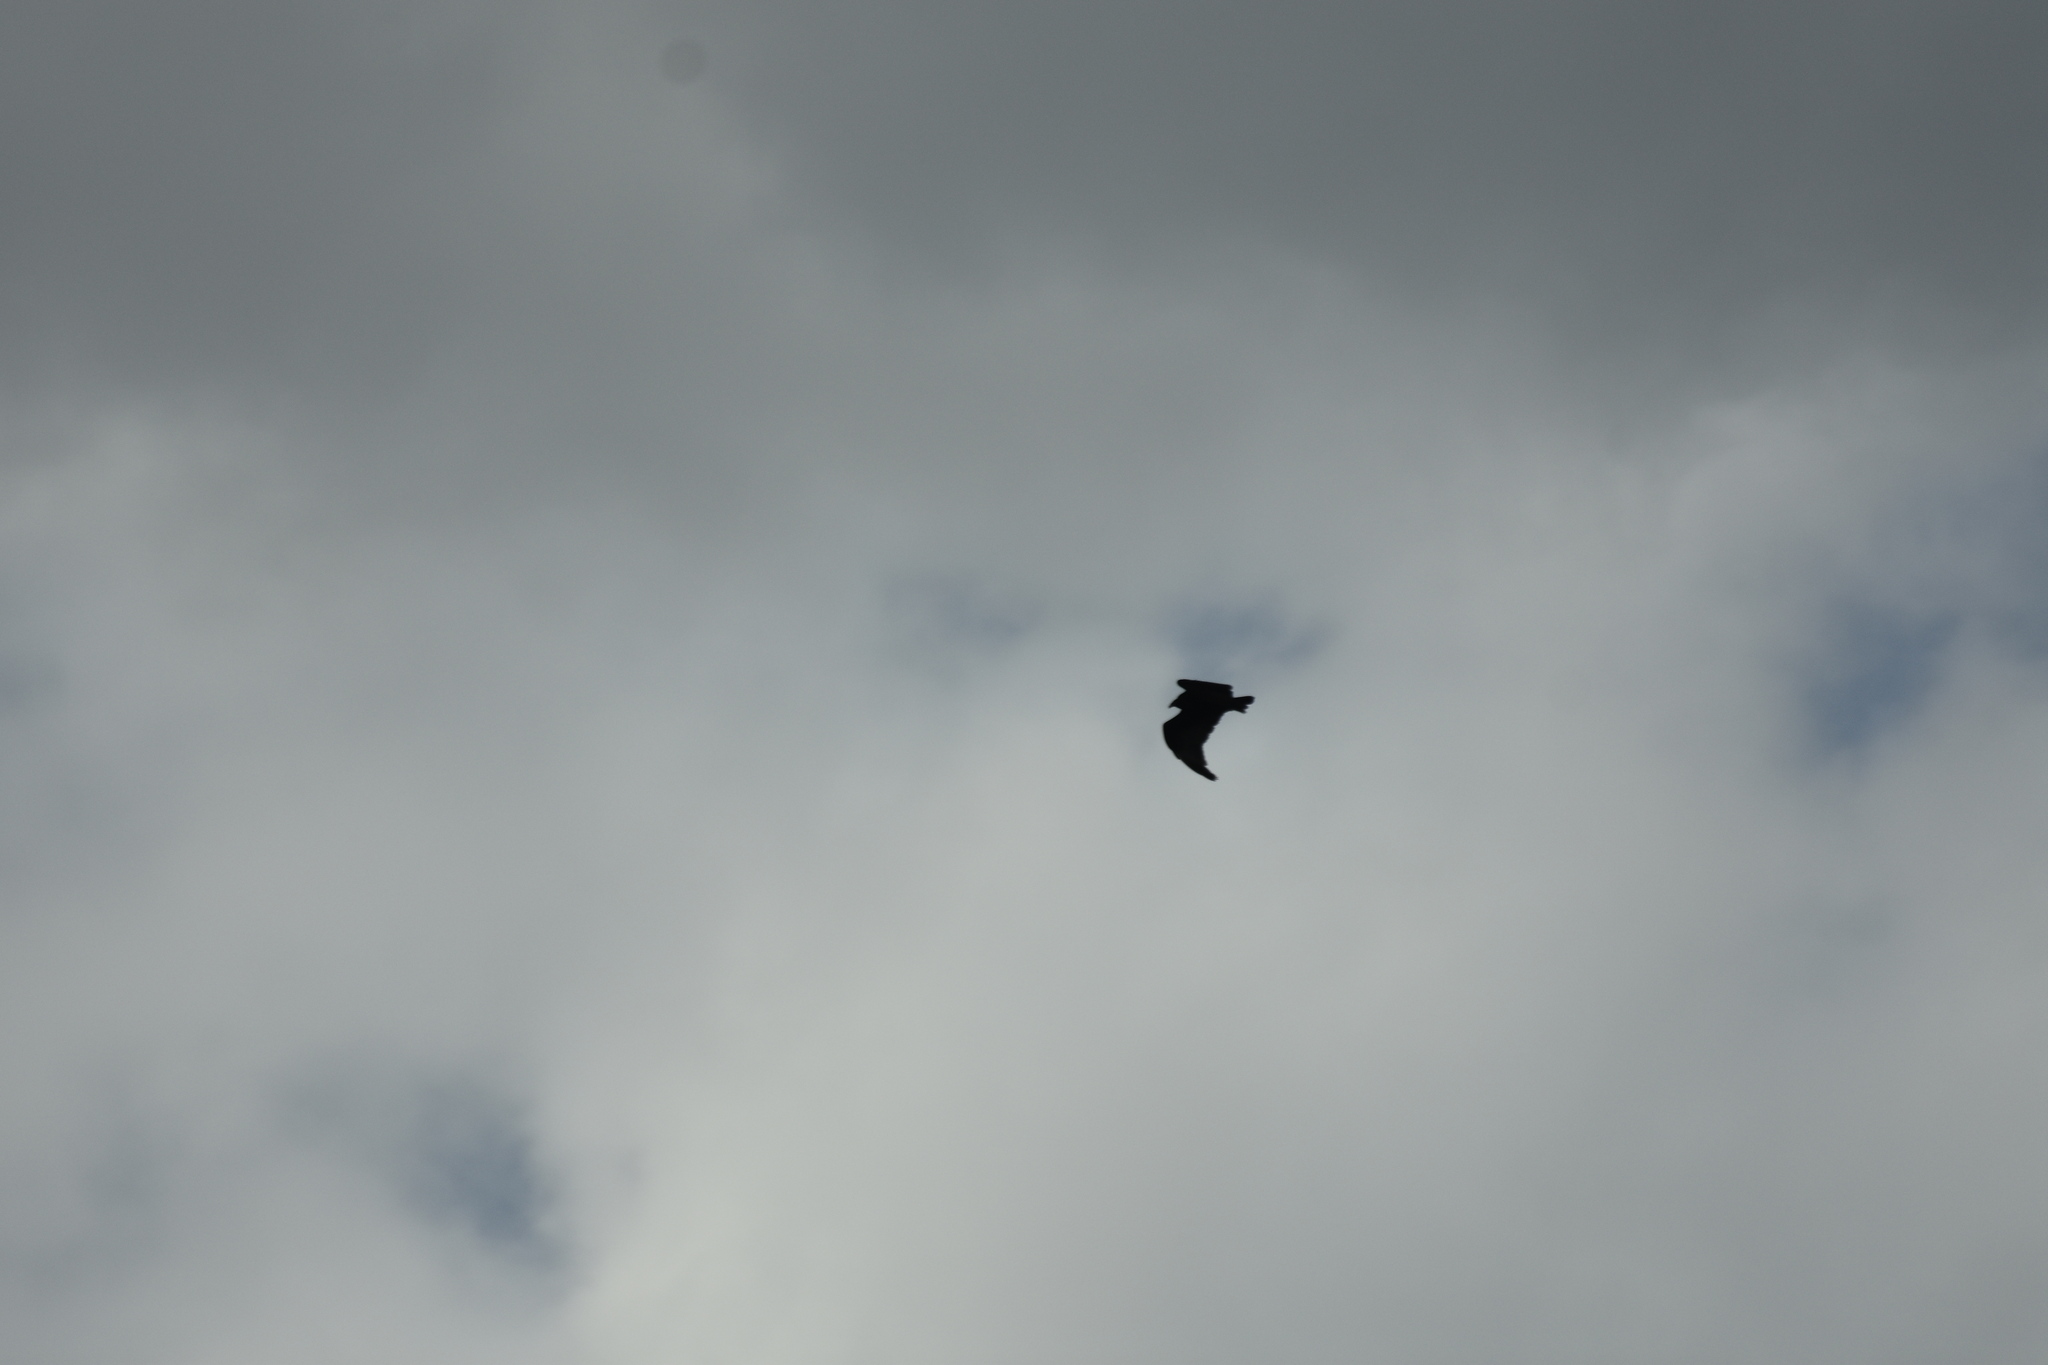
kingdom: Animalia
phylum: Chordata
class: Aves
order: Accipitriformes
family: Cathartidae
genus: Cathartes
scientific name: Cathartes aura
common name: Turkey vulture
